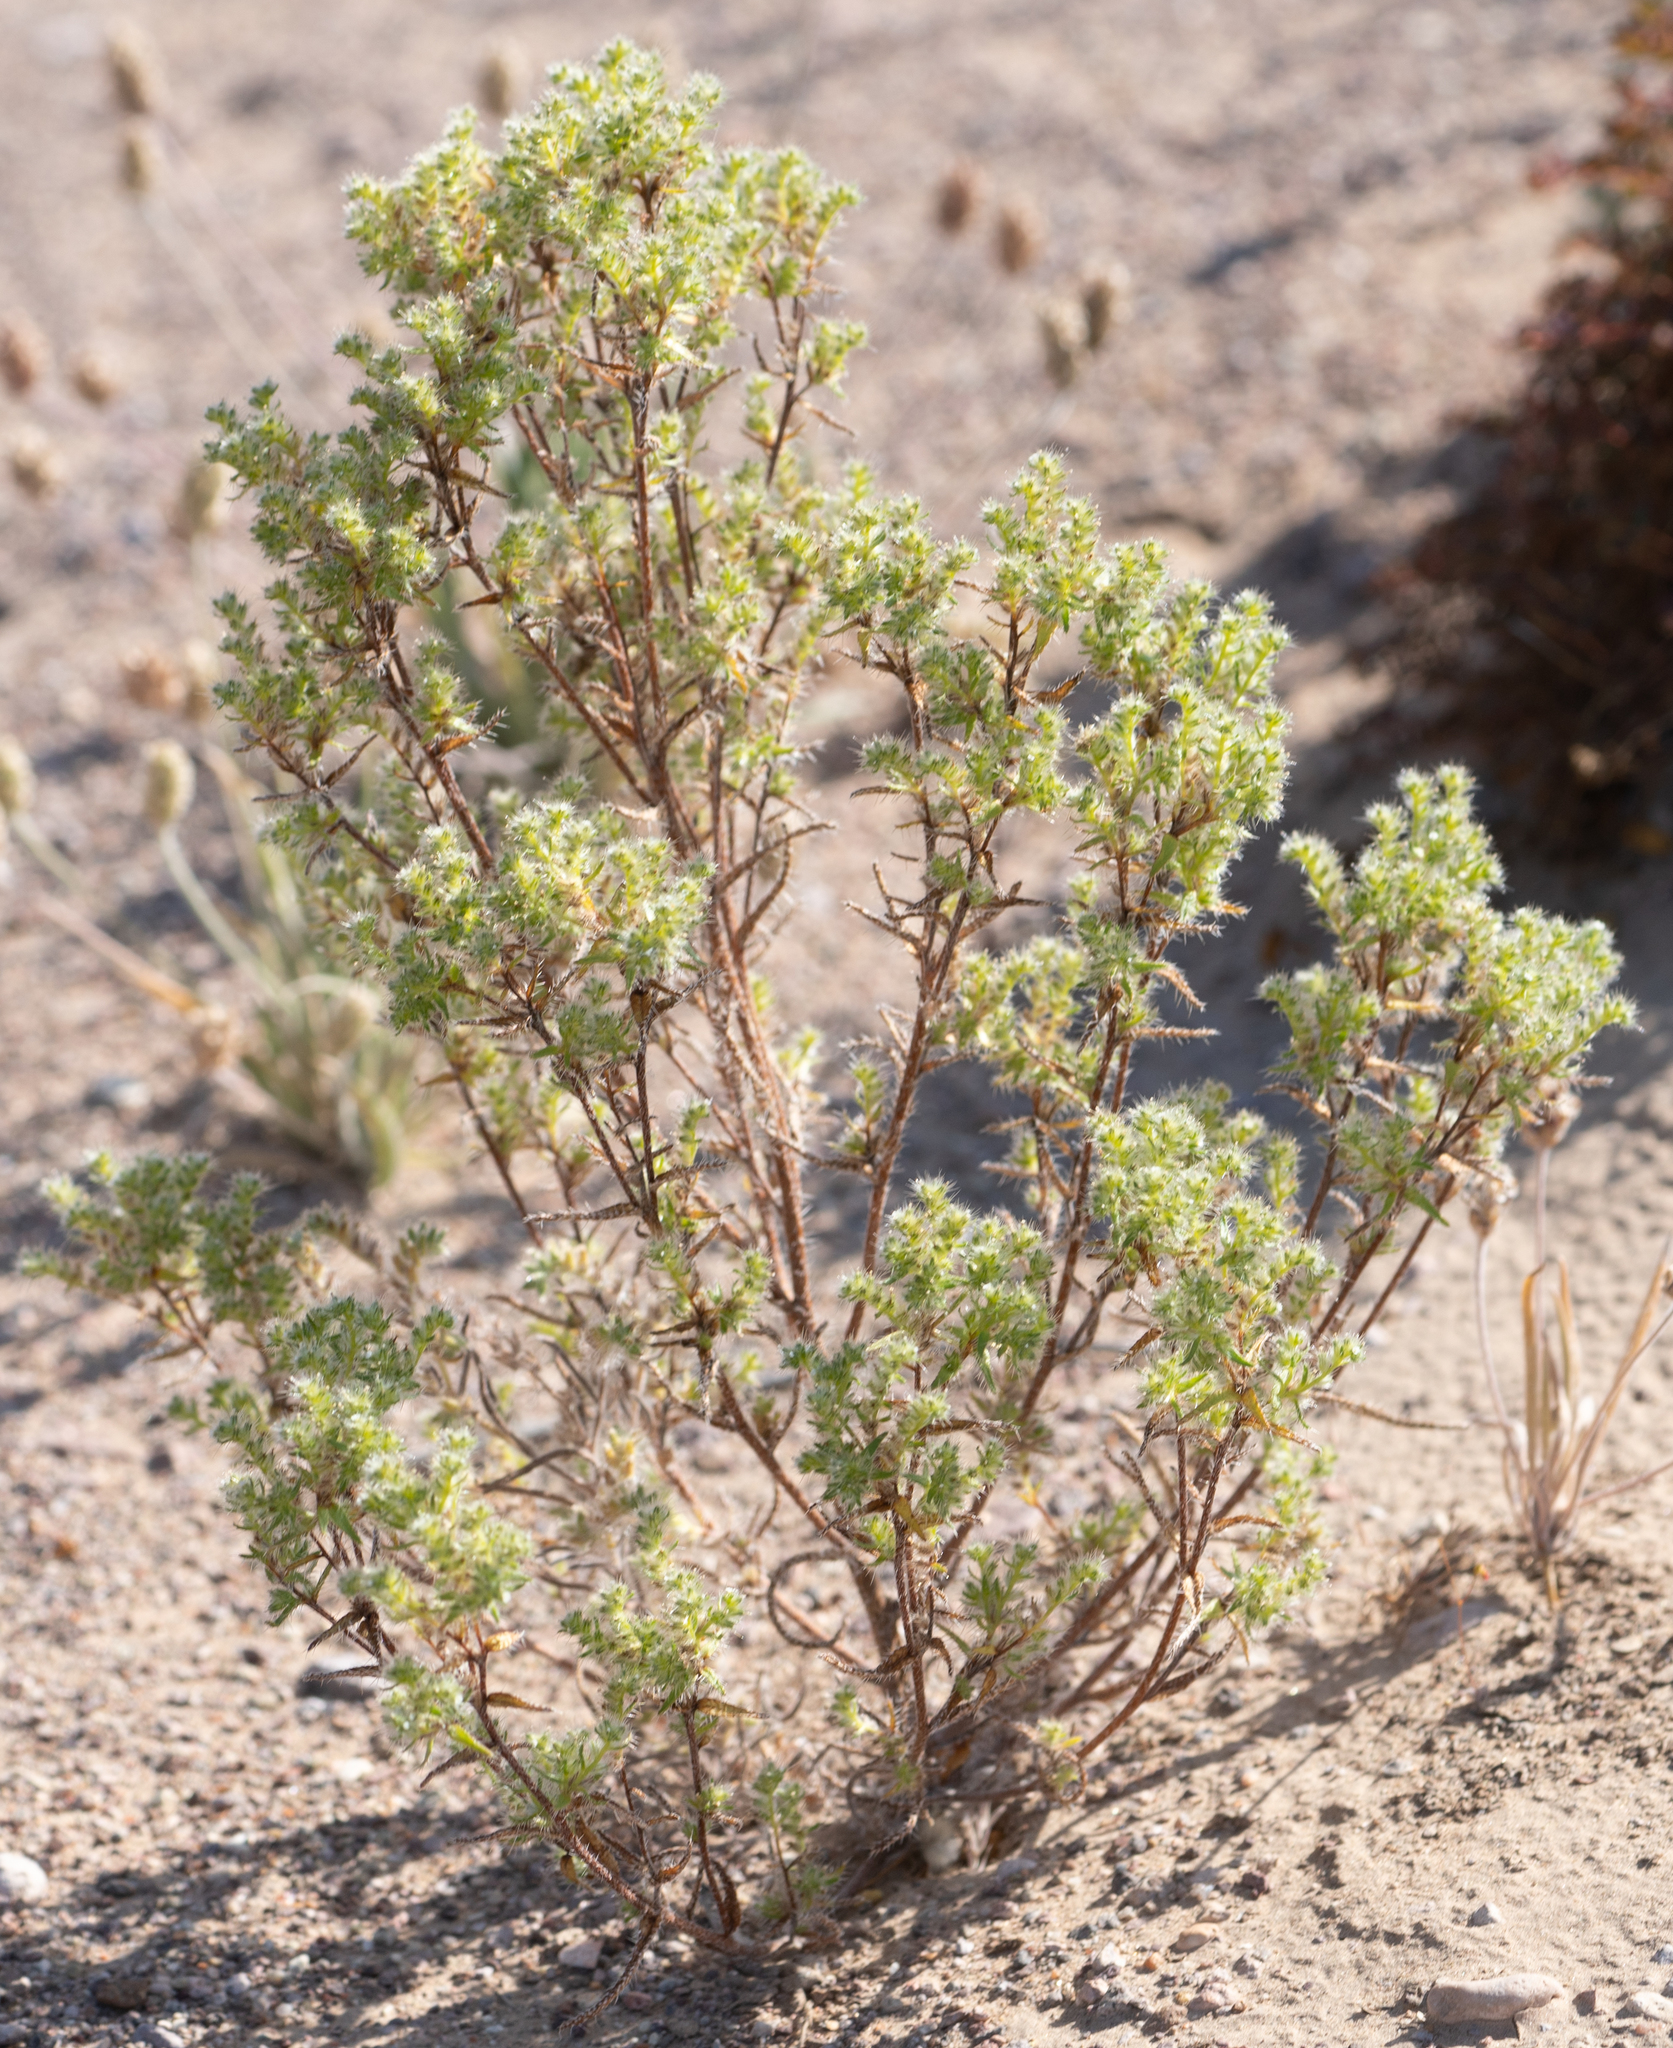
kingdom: Plantae
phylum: Tracheophyta
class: Magnoliopsida
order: Boraginales
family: Boraginaceae
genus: Cryptantha
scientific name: Cryptantha maritima
